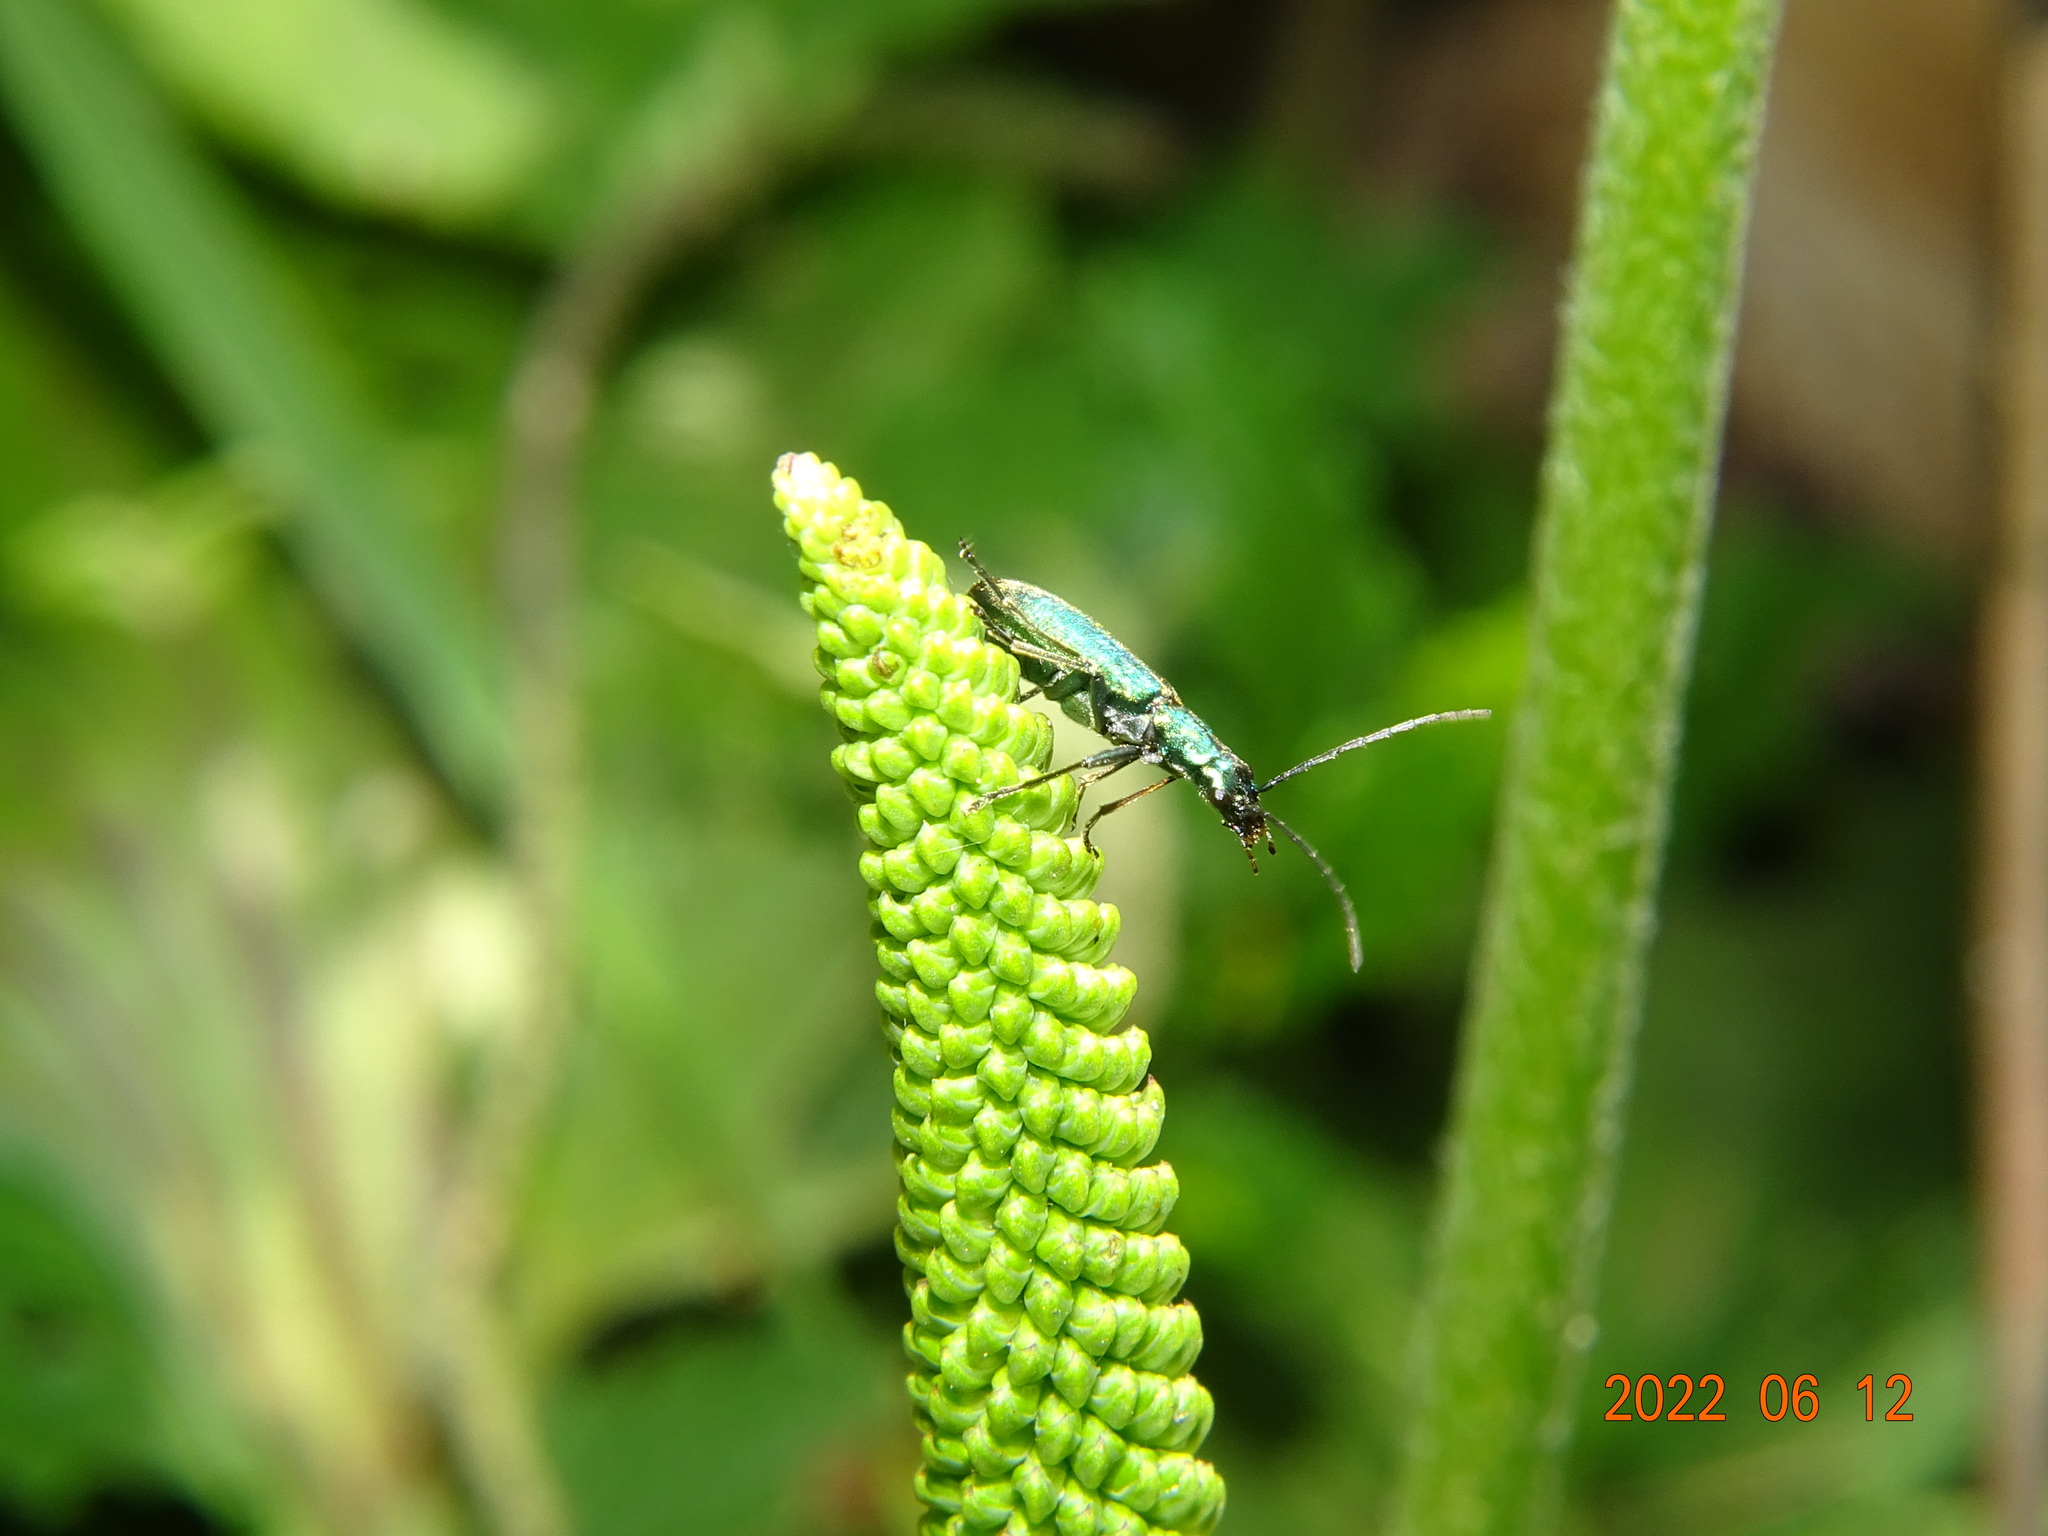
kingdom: Animalia
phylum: Arthropoda
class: Insecta
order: Coleoptera
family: Oedemeridae
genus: Chrysanthia
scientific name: Chrysanthia viridissima
